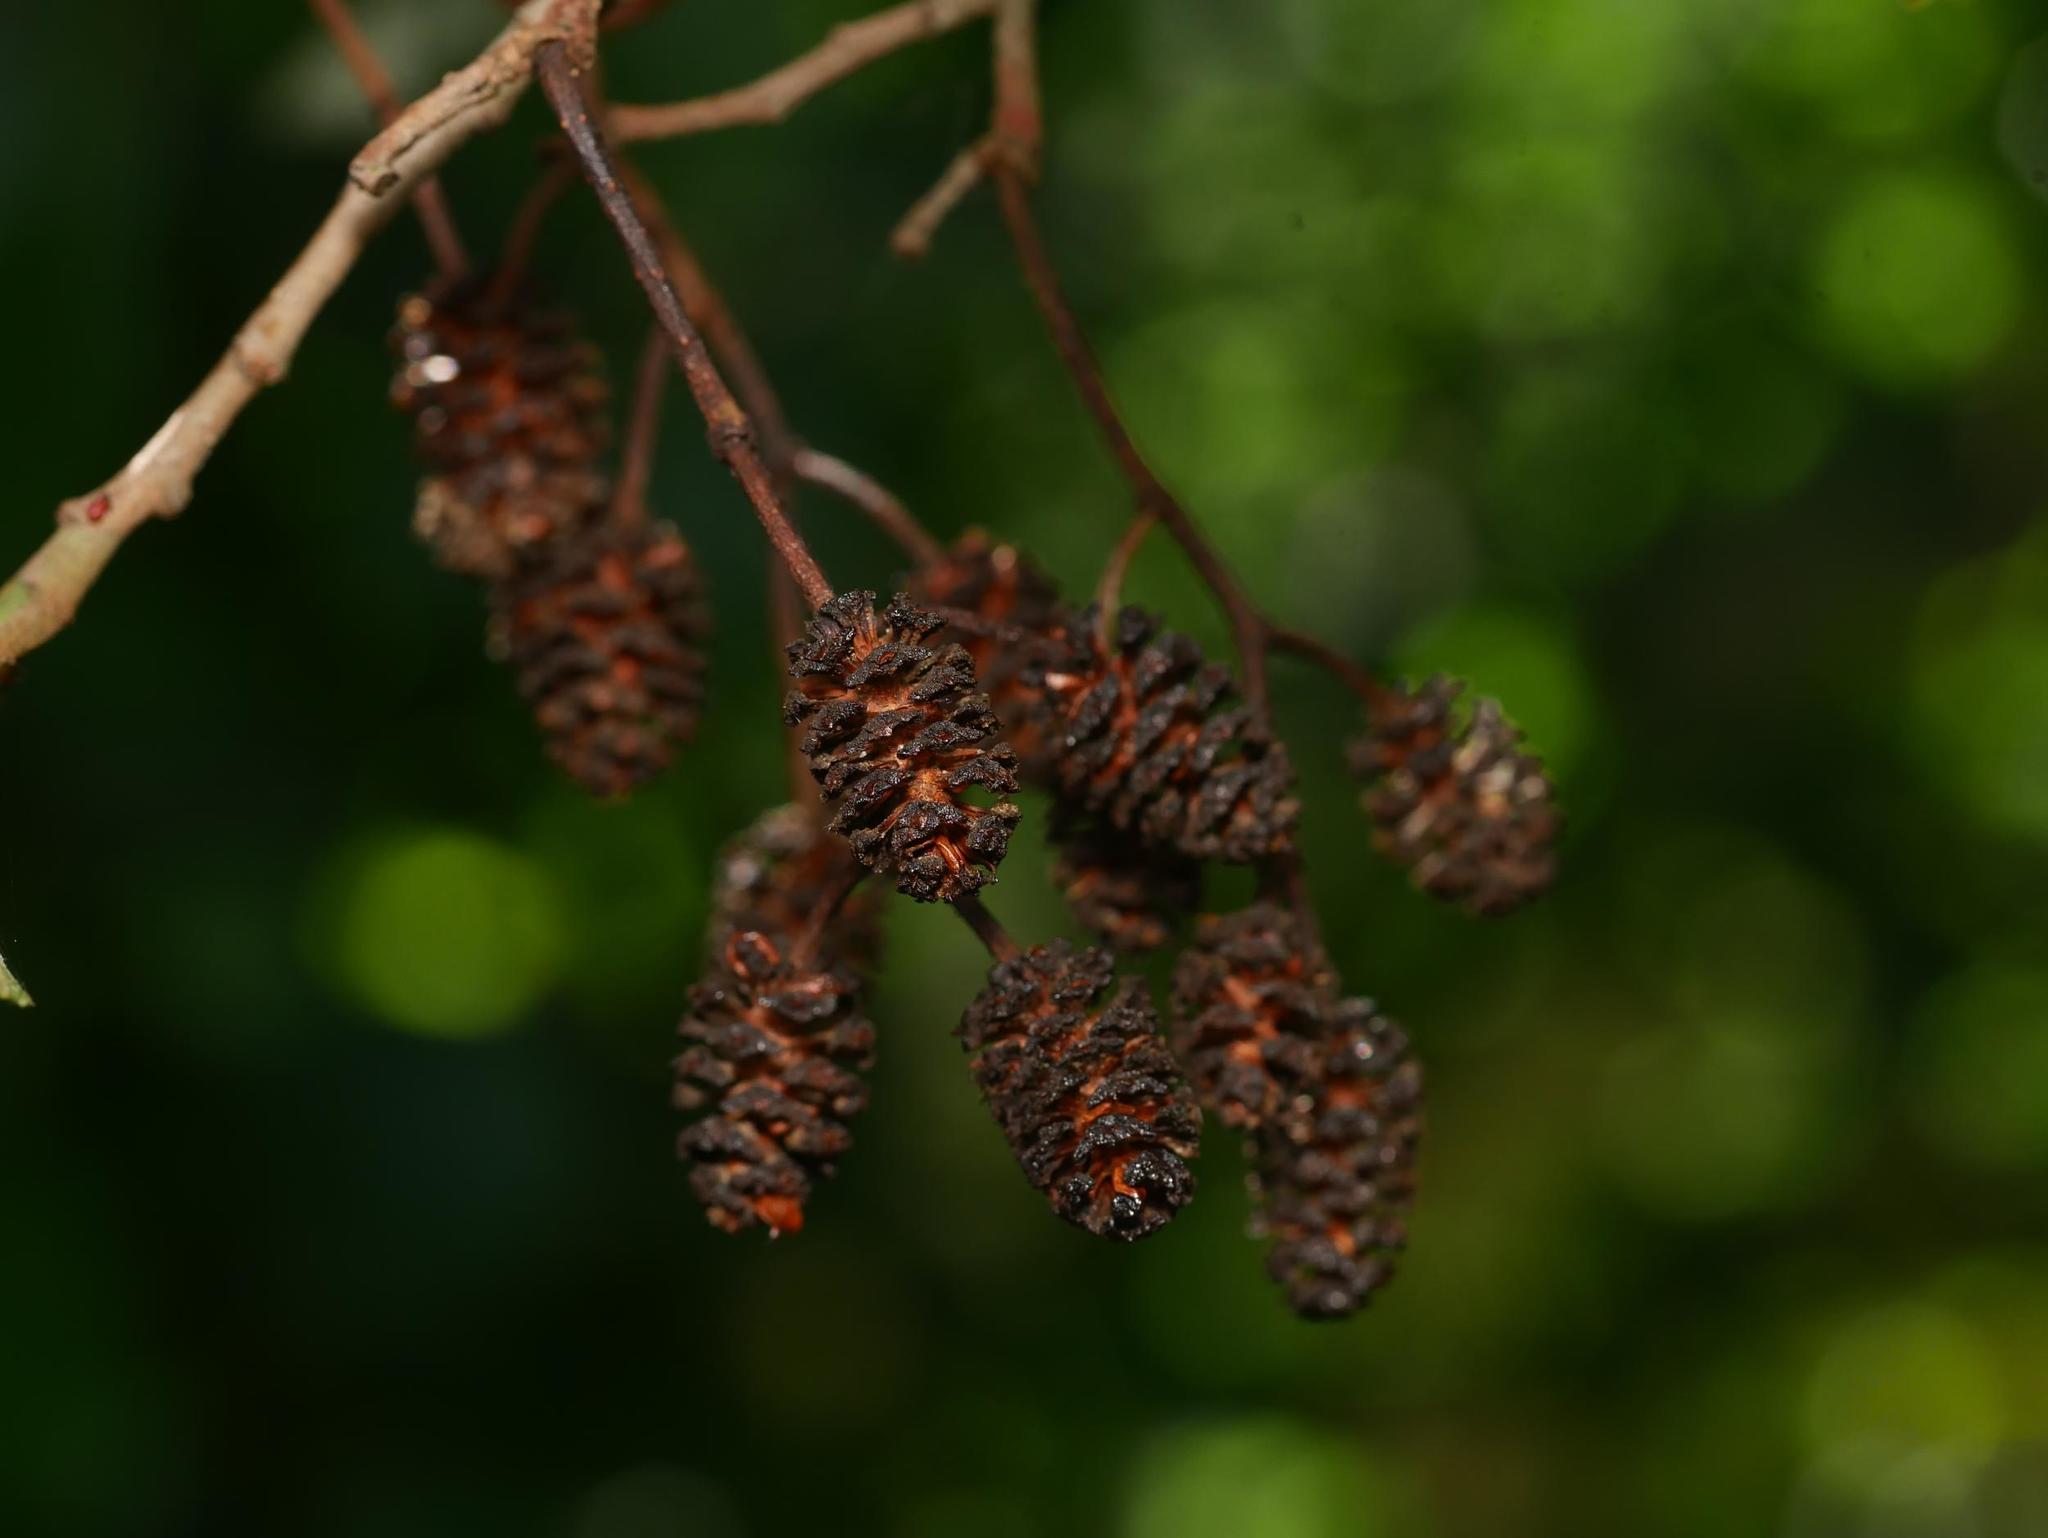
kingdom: Plantae
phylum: Tracheophyta
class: Magnoliopsida
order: Fagales
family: Betulaceae
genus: Alnus
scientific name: Alnus glutinosa
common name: Black alder
